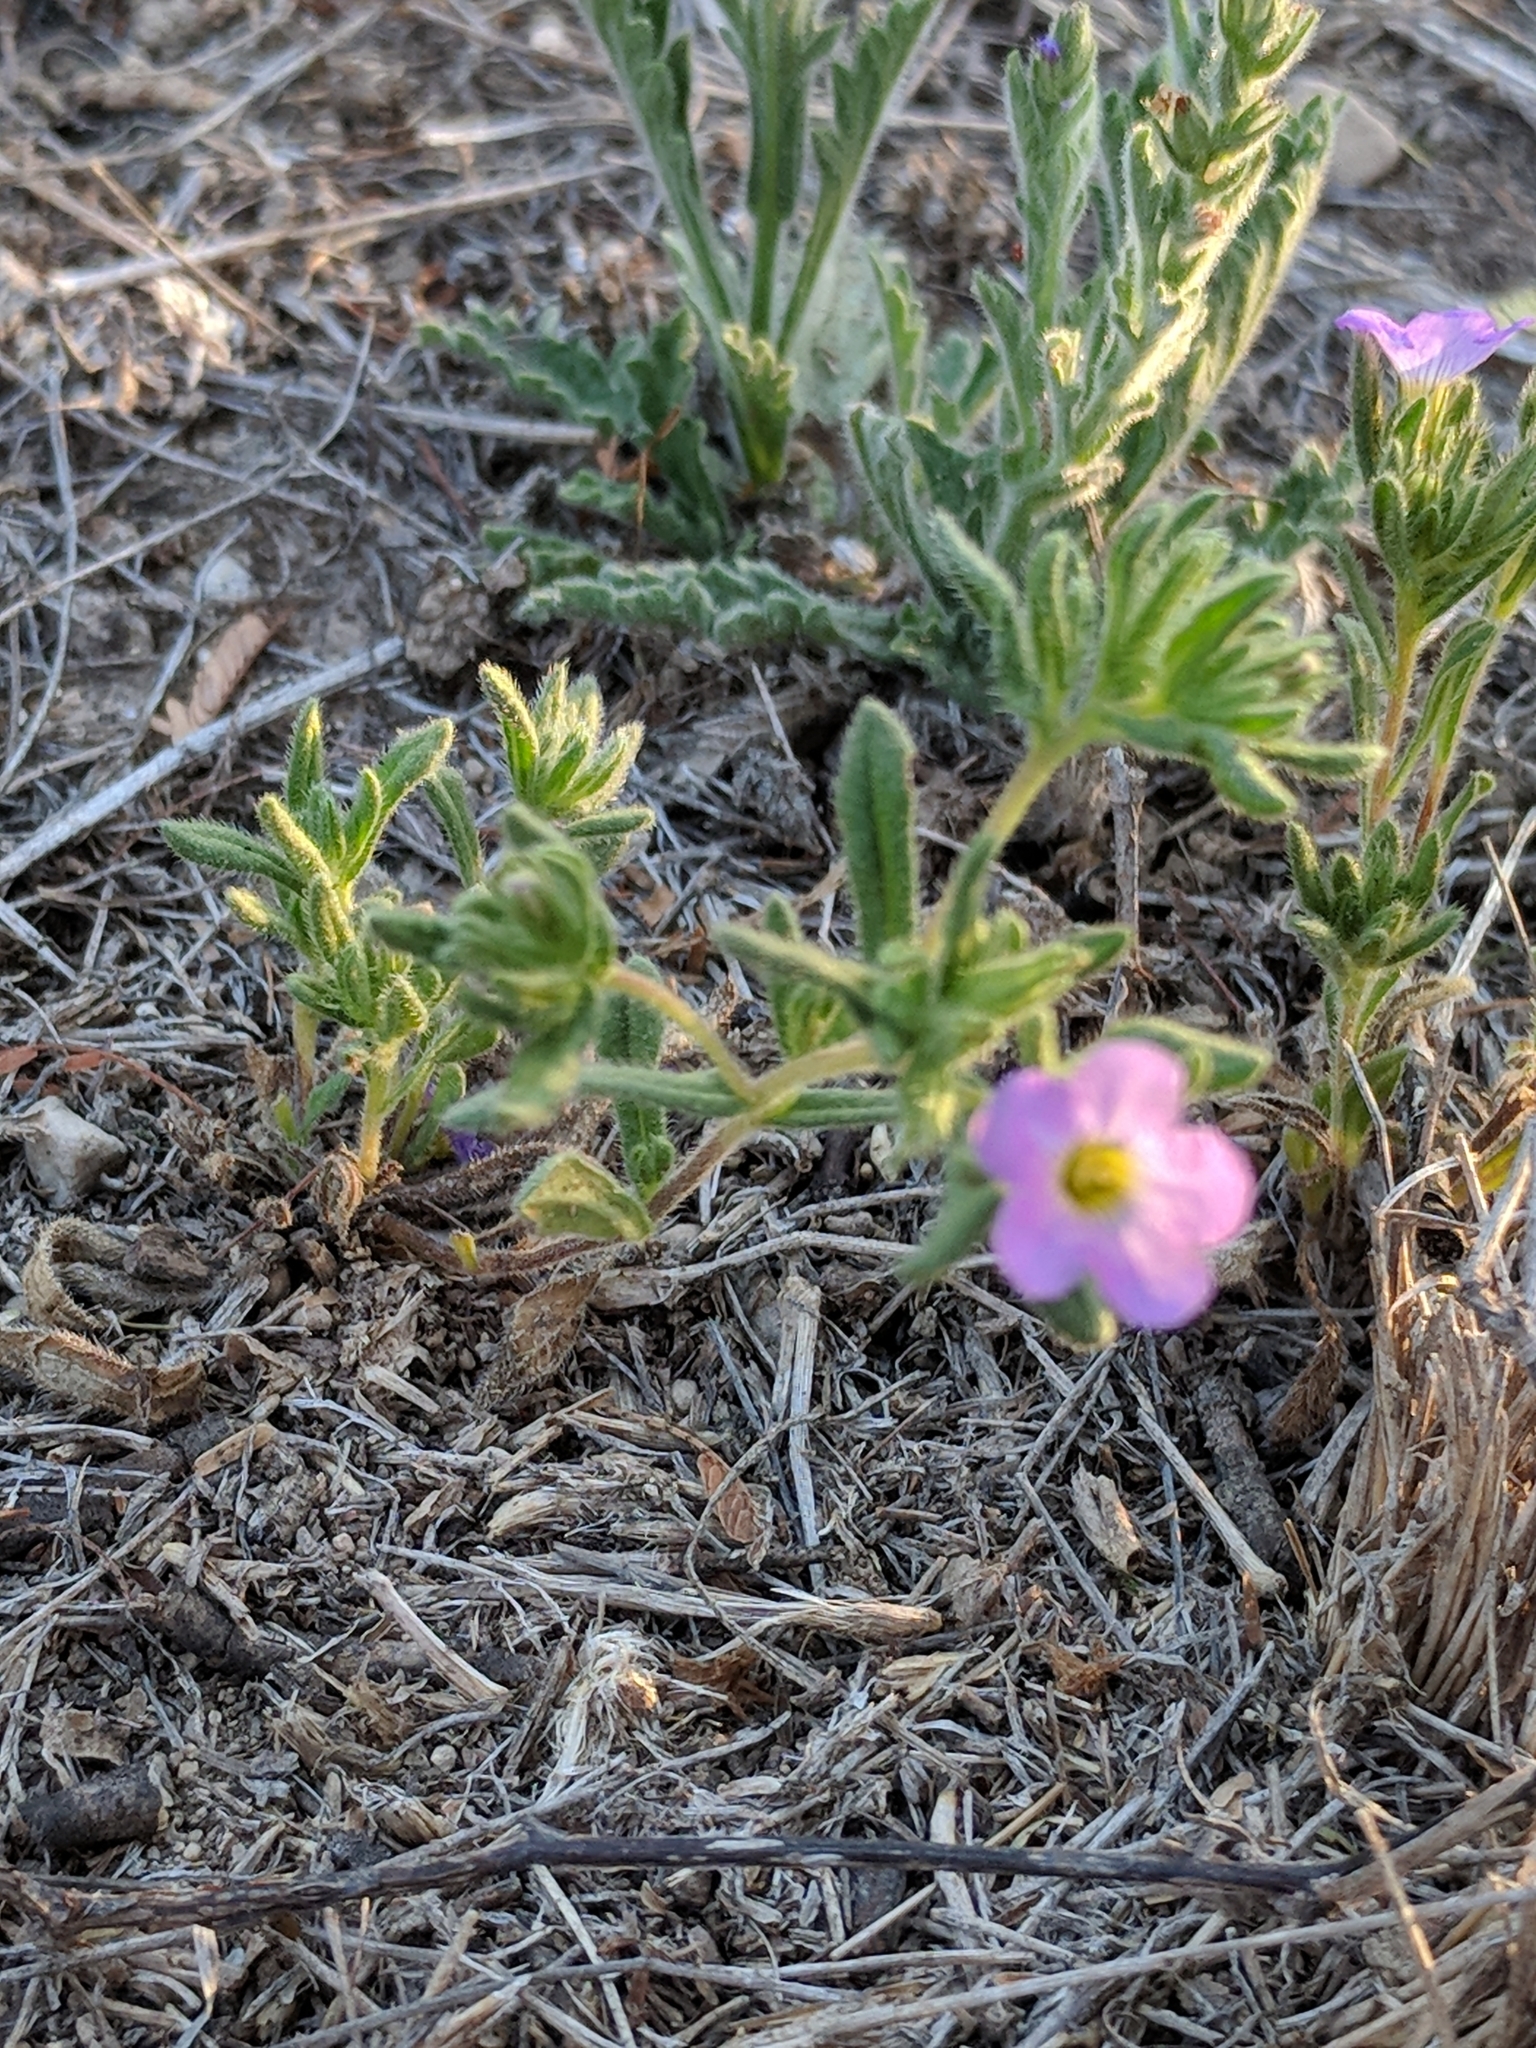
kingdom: Plantae
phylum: Tracheophyta
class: Magnoliopsida
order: Boraginales
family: Namaceae
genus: Nama
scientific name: Nama hispida
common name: Bristly nama
